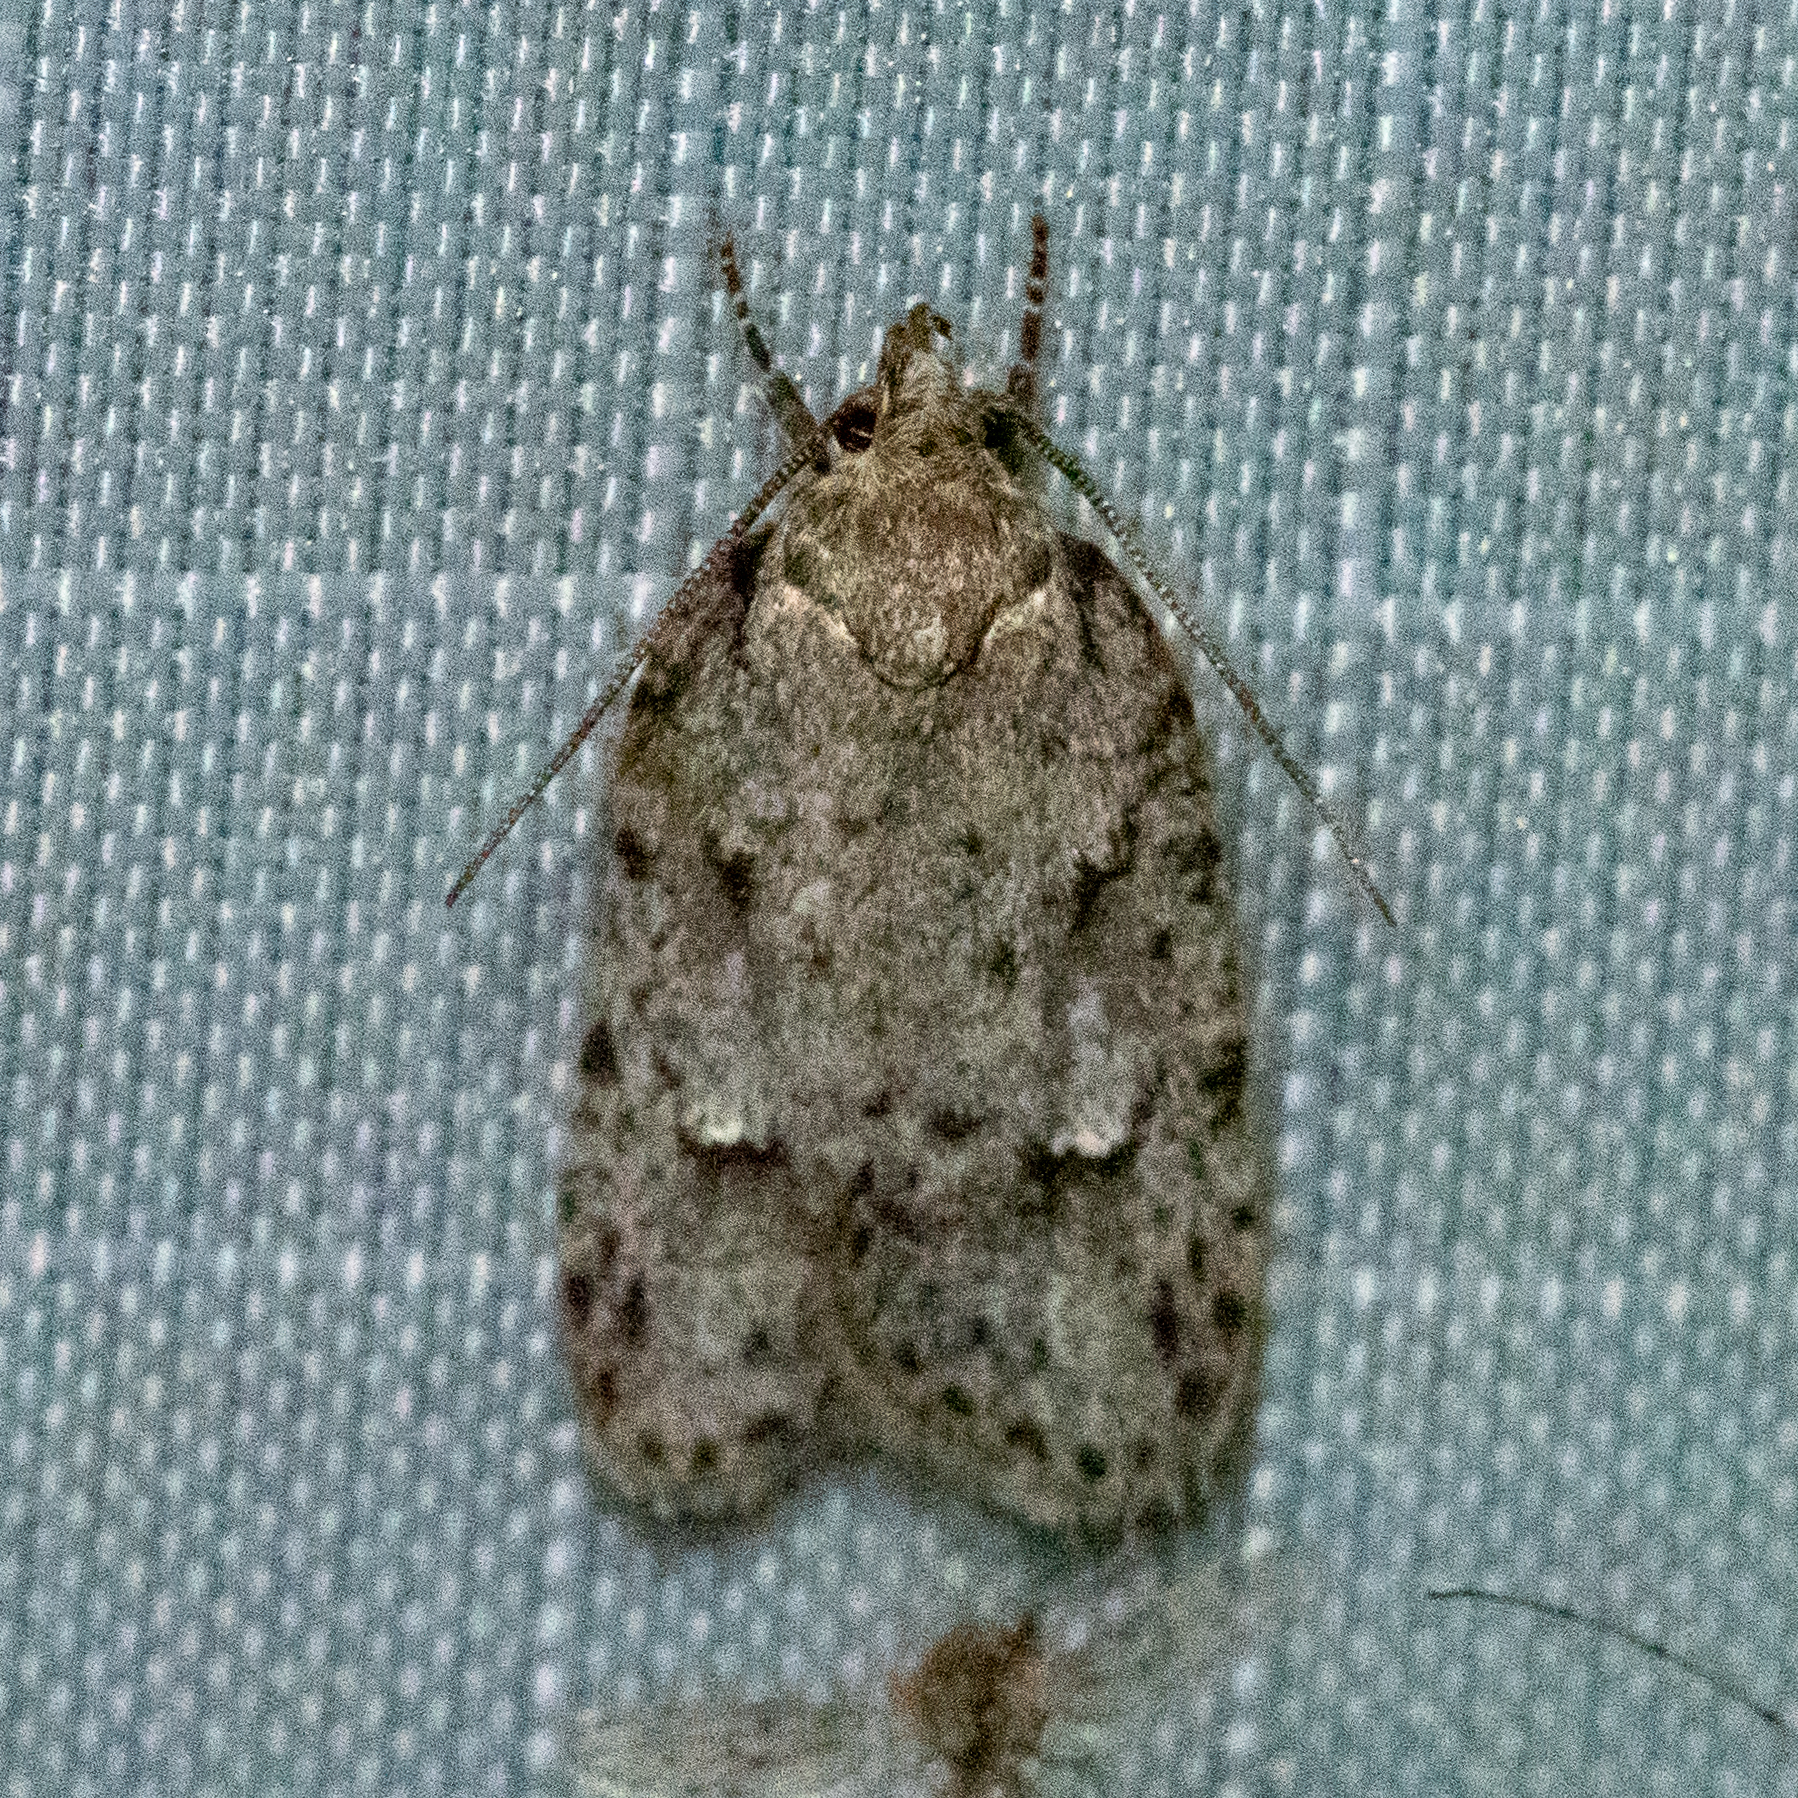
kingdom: Animalia
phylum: Arthropoda
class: Insecta
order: Lepidoptera
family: Depressariidae
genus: Bibarrambla
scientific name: Bibarrambla allenella
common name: Bog bibarrambla moth
